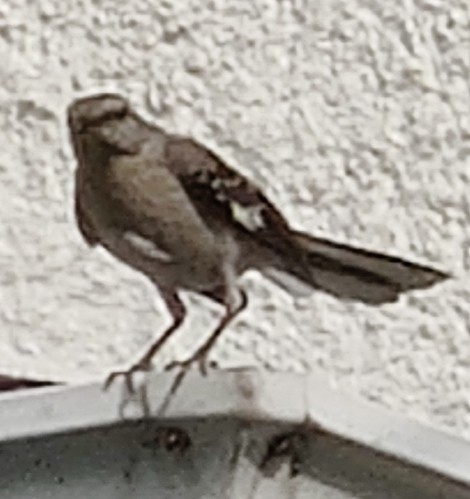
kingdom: Animalia
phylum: Chordata
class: Aves
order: Passeriformes
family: Mimidae
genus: Mimus
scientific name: Mimus polyglottos
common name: Northern mockingbird
